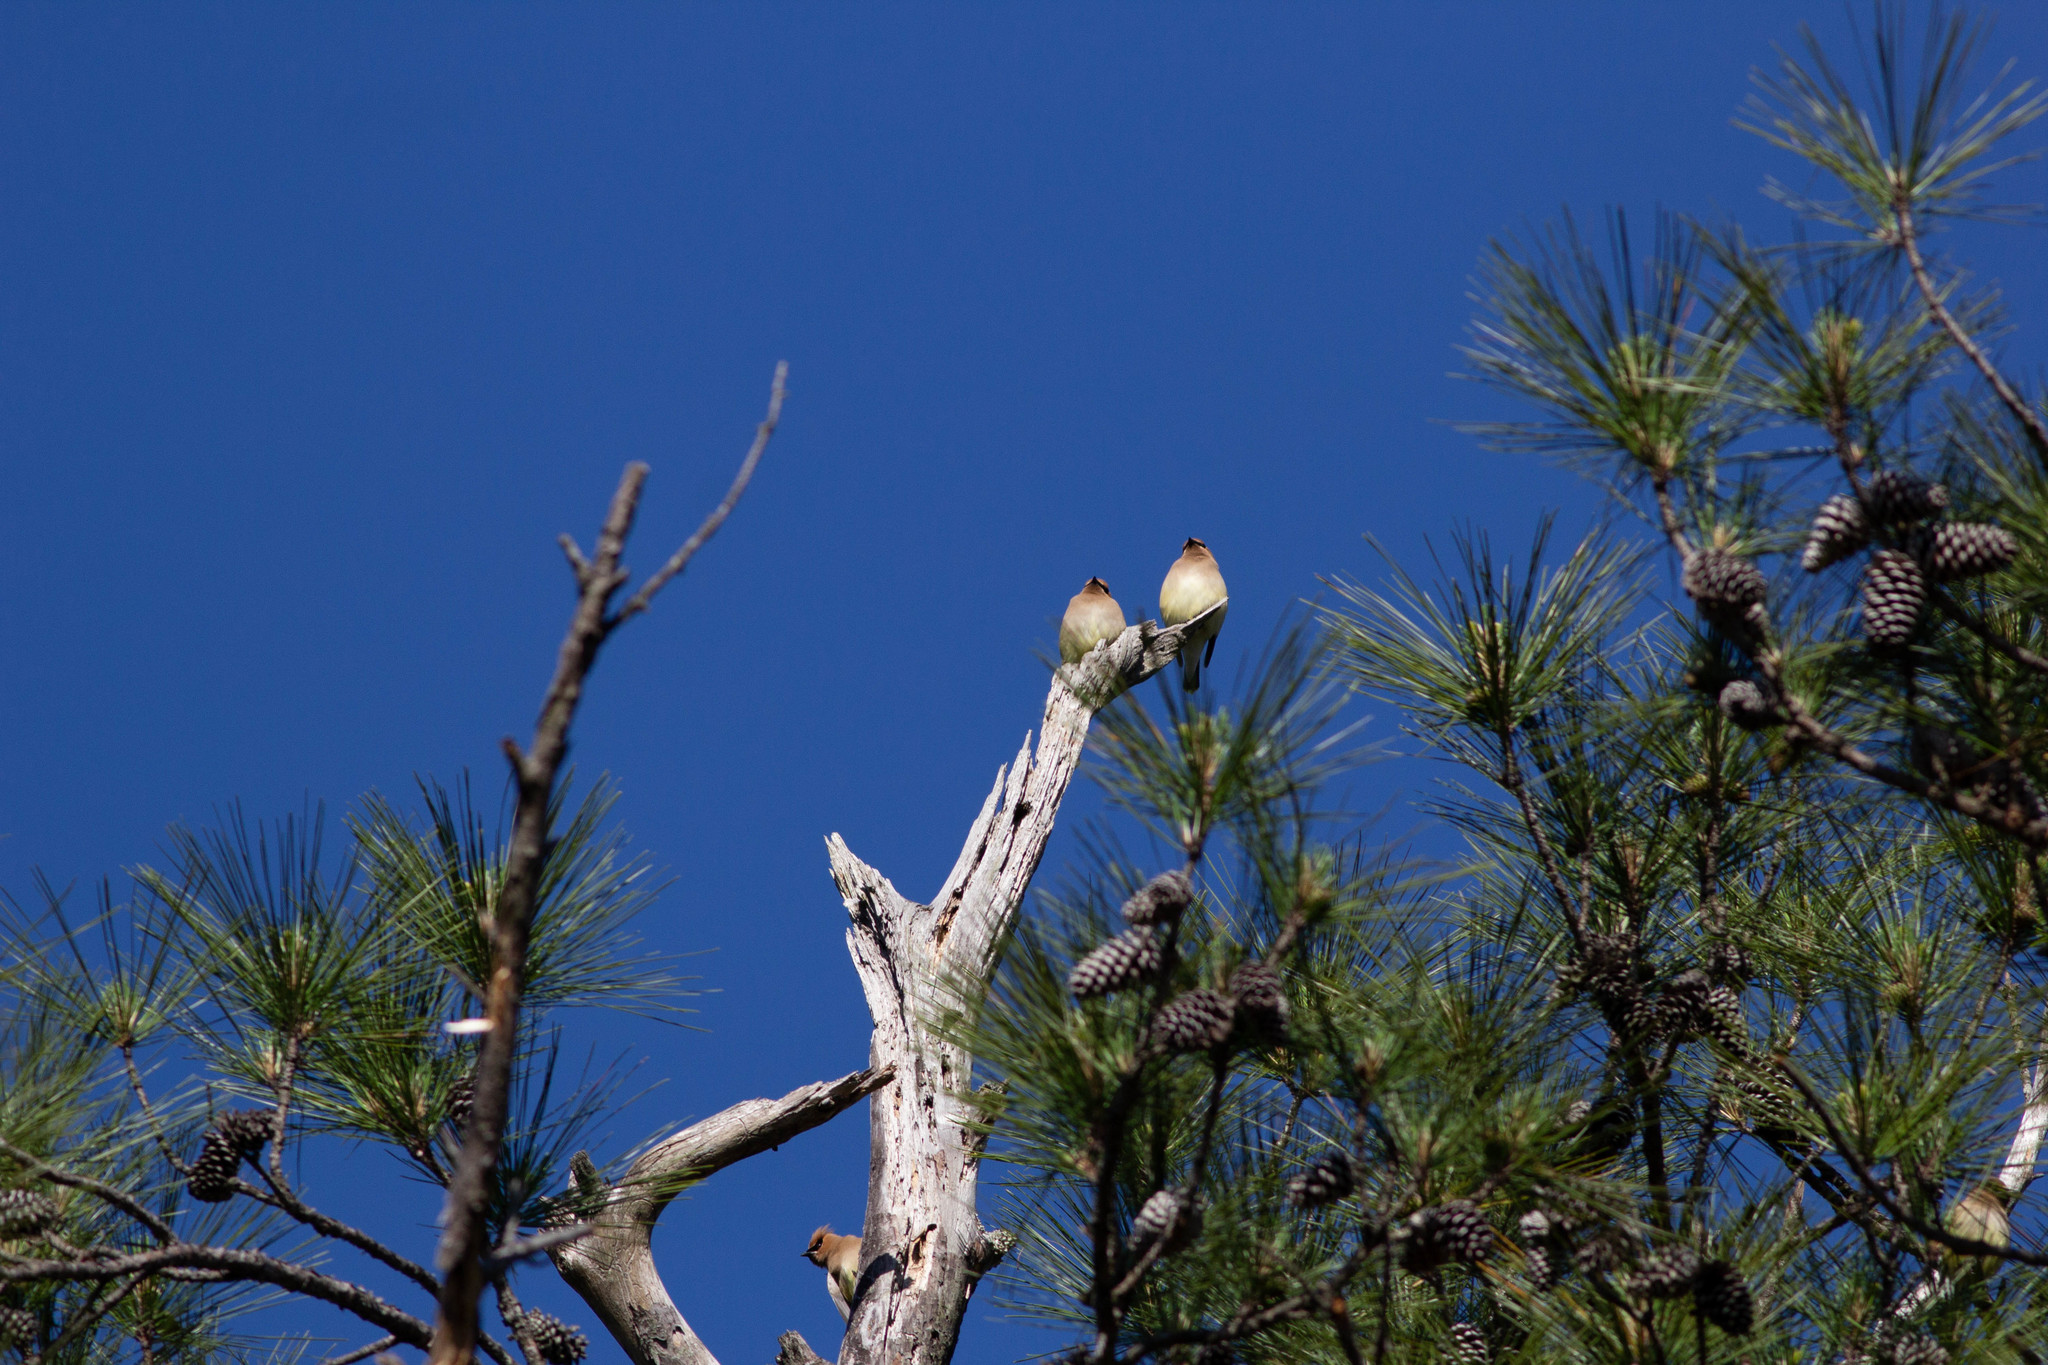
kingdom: Animalia
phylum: Chordata
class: Aves
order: Passeriformes
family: Bombycillidae
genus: Bombycilla
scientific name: Bombycilla cedrorum
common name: Cedar waxwing
